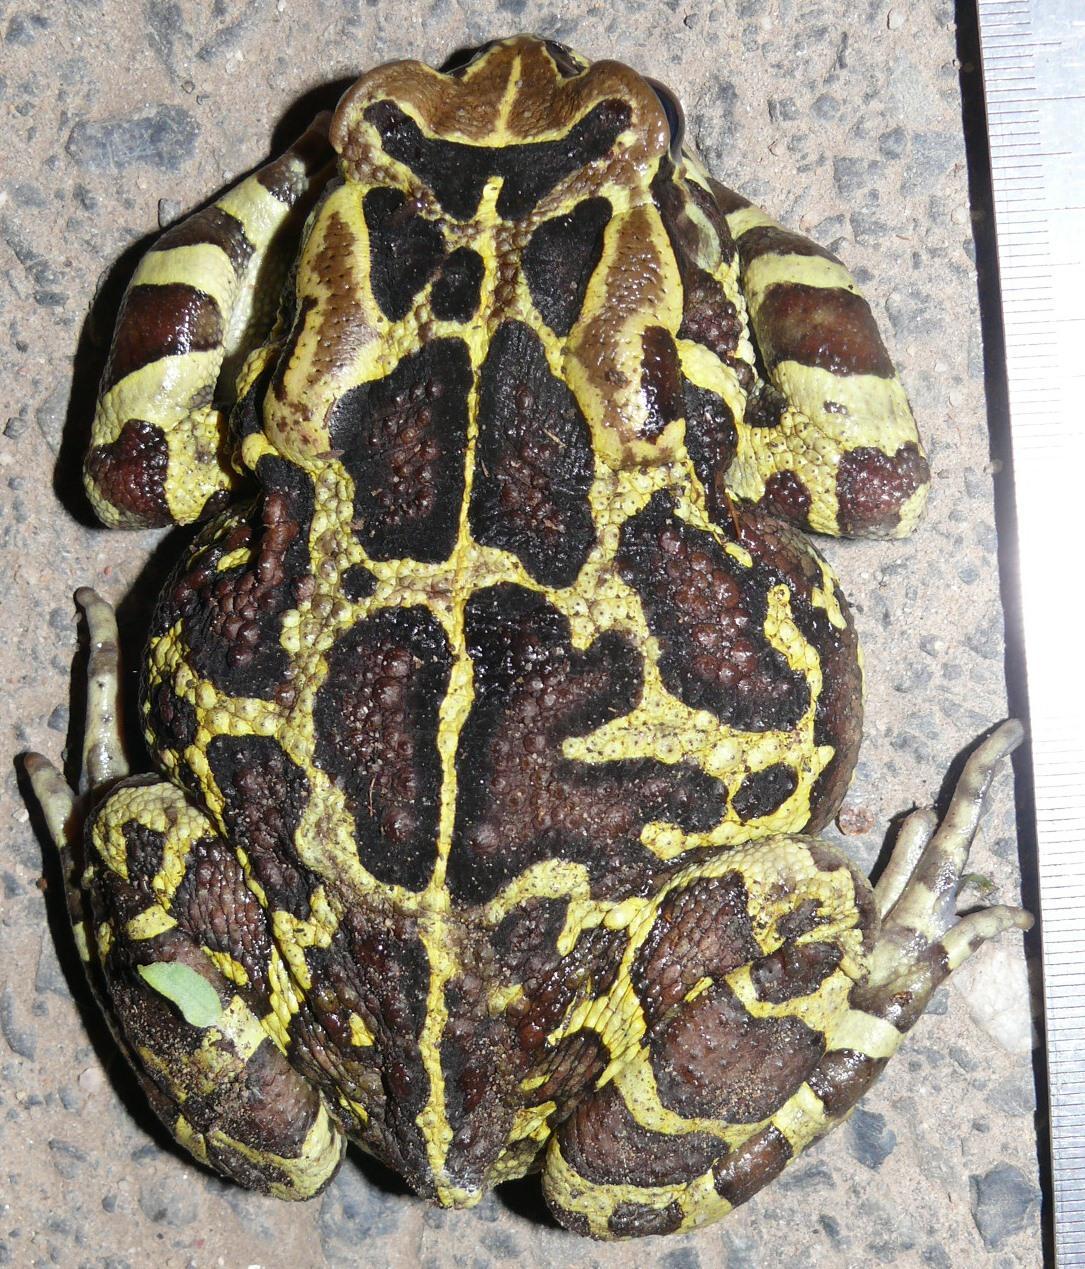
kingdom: Animalia
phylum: Chordata
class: Amphibia
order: Anura
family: Bufonidae
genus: Sclerophrys
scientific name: Sclerophrys pantherina
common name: Panther toad
